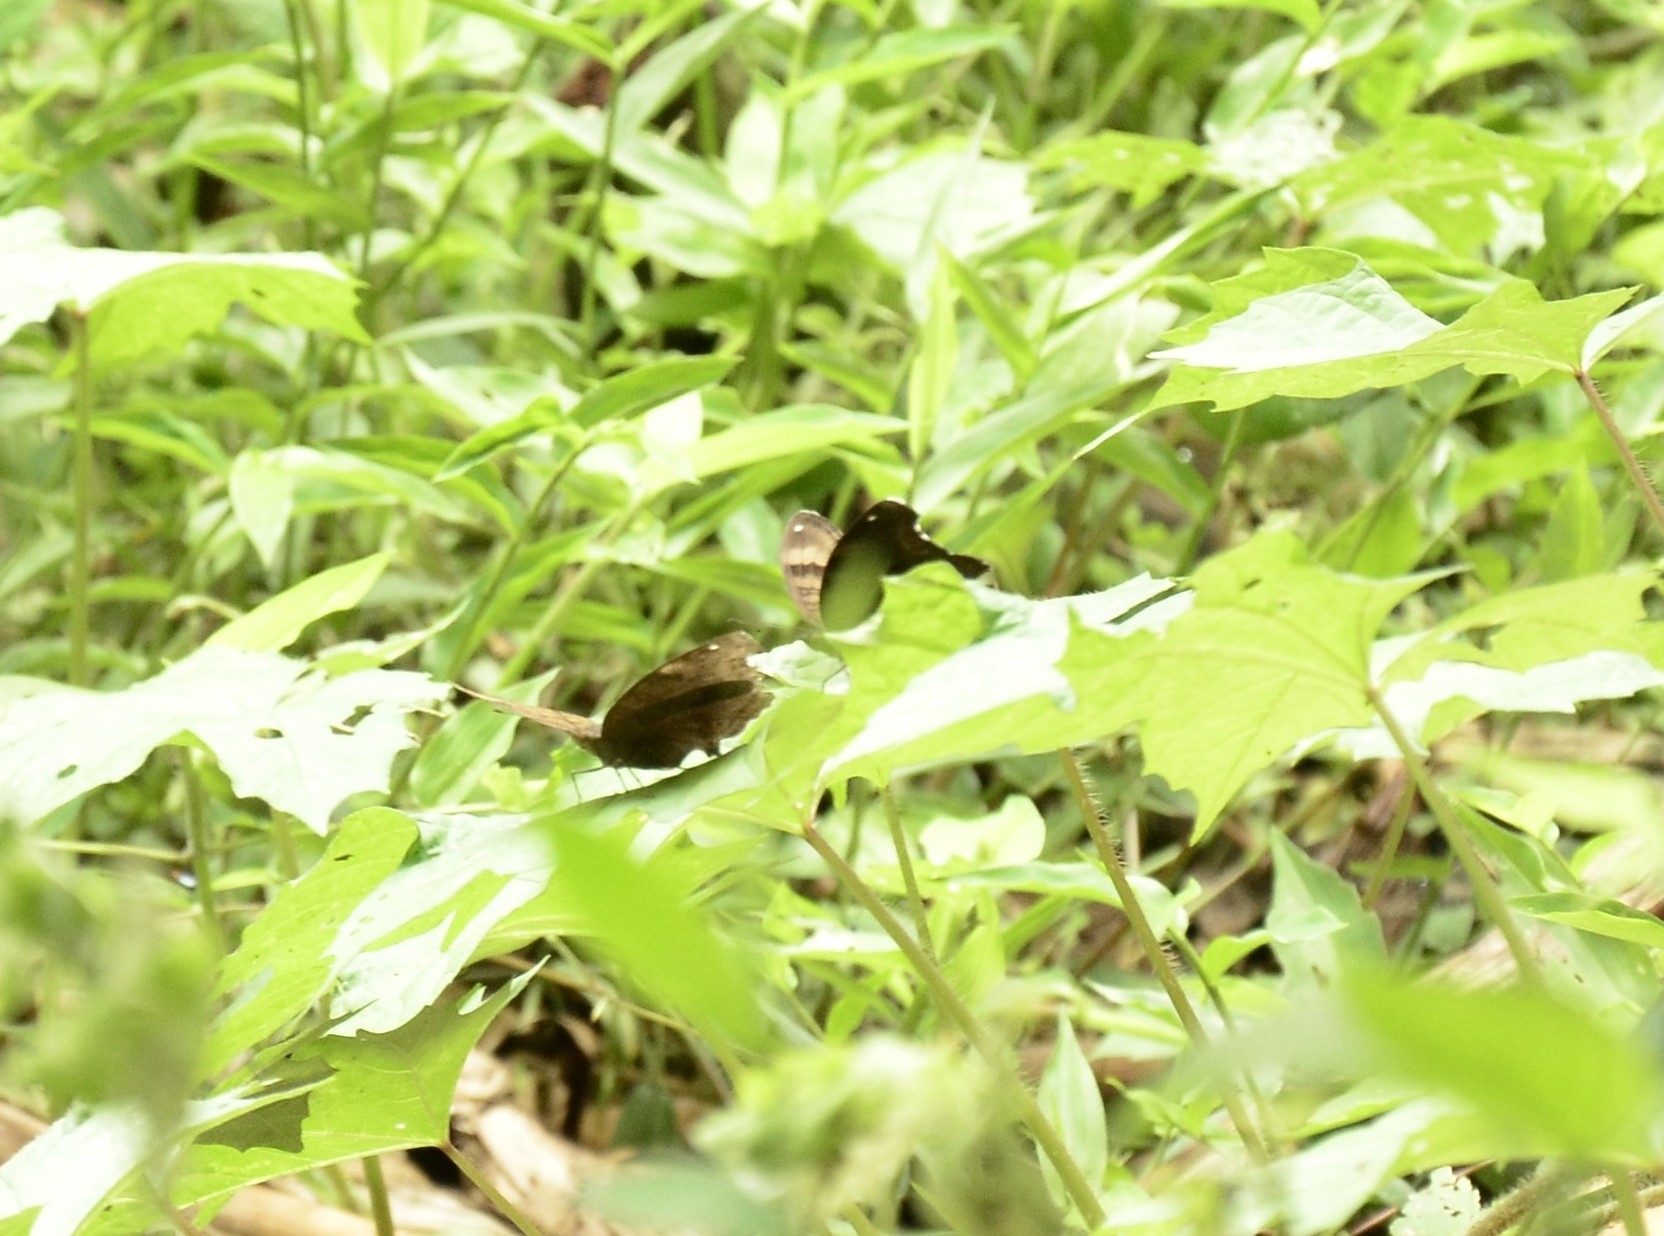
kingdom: Animalia
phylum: Arthropoda
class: Insecta
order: Lepidoptera
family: Nymphalidae
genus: Junonia
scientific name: Junonia iphita
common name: Chocolate pansy
